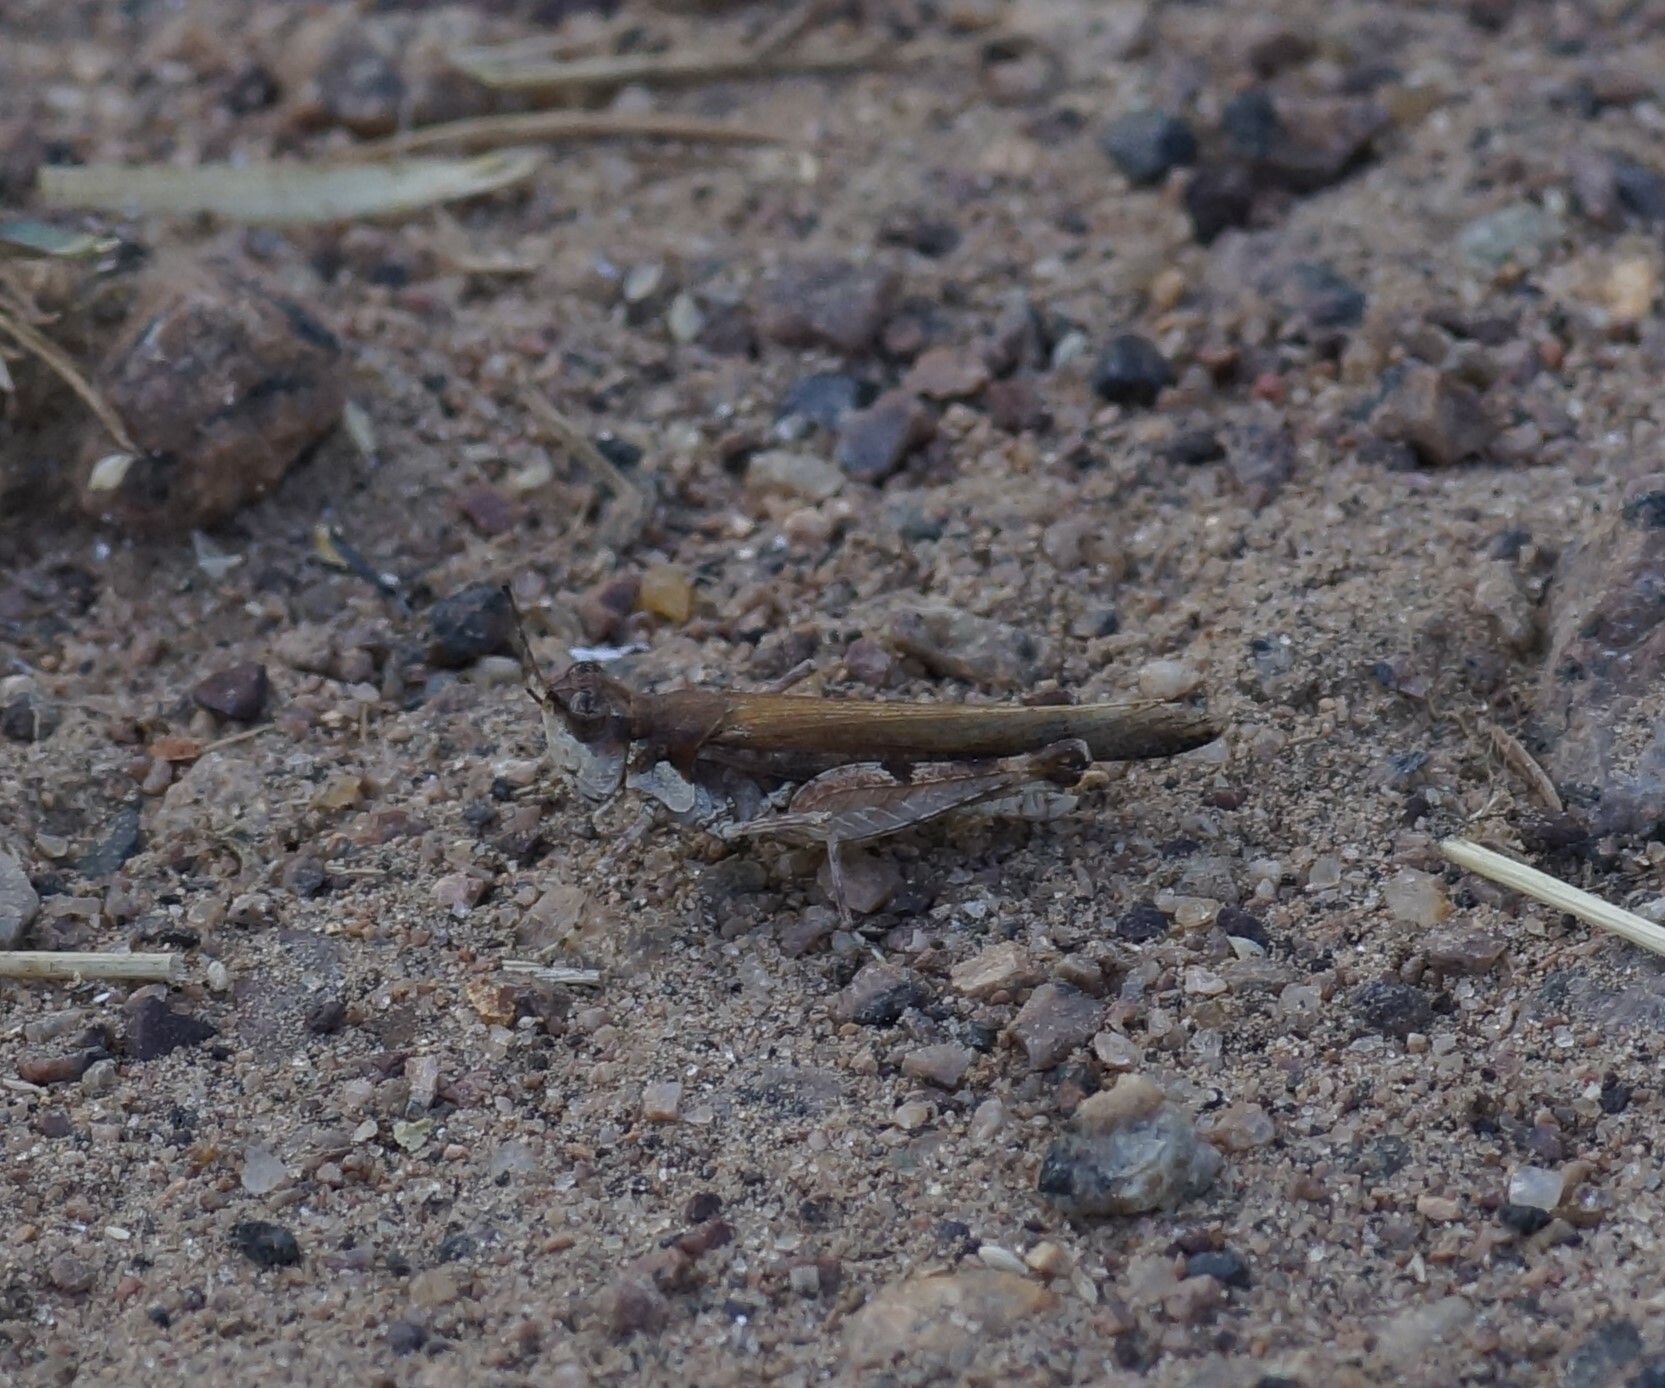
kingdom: Animalia
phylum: Arthropoda
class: Insecta
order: Orthoptera
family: Acrididae
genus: Pycnostictus
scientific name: Pycnostictus seriatus
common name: Common bandwing
